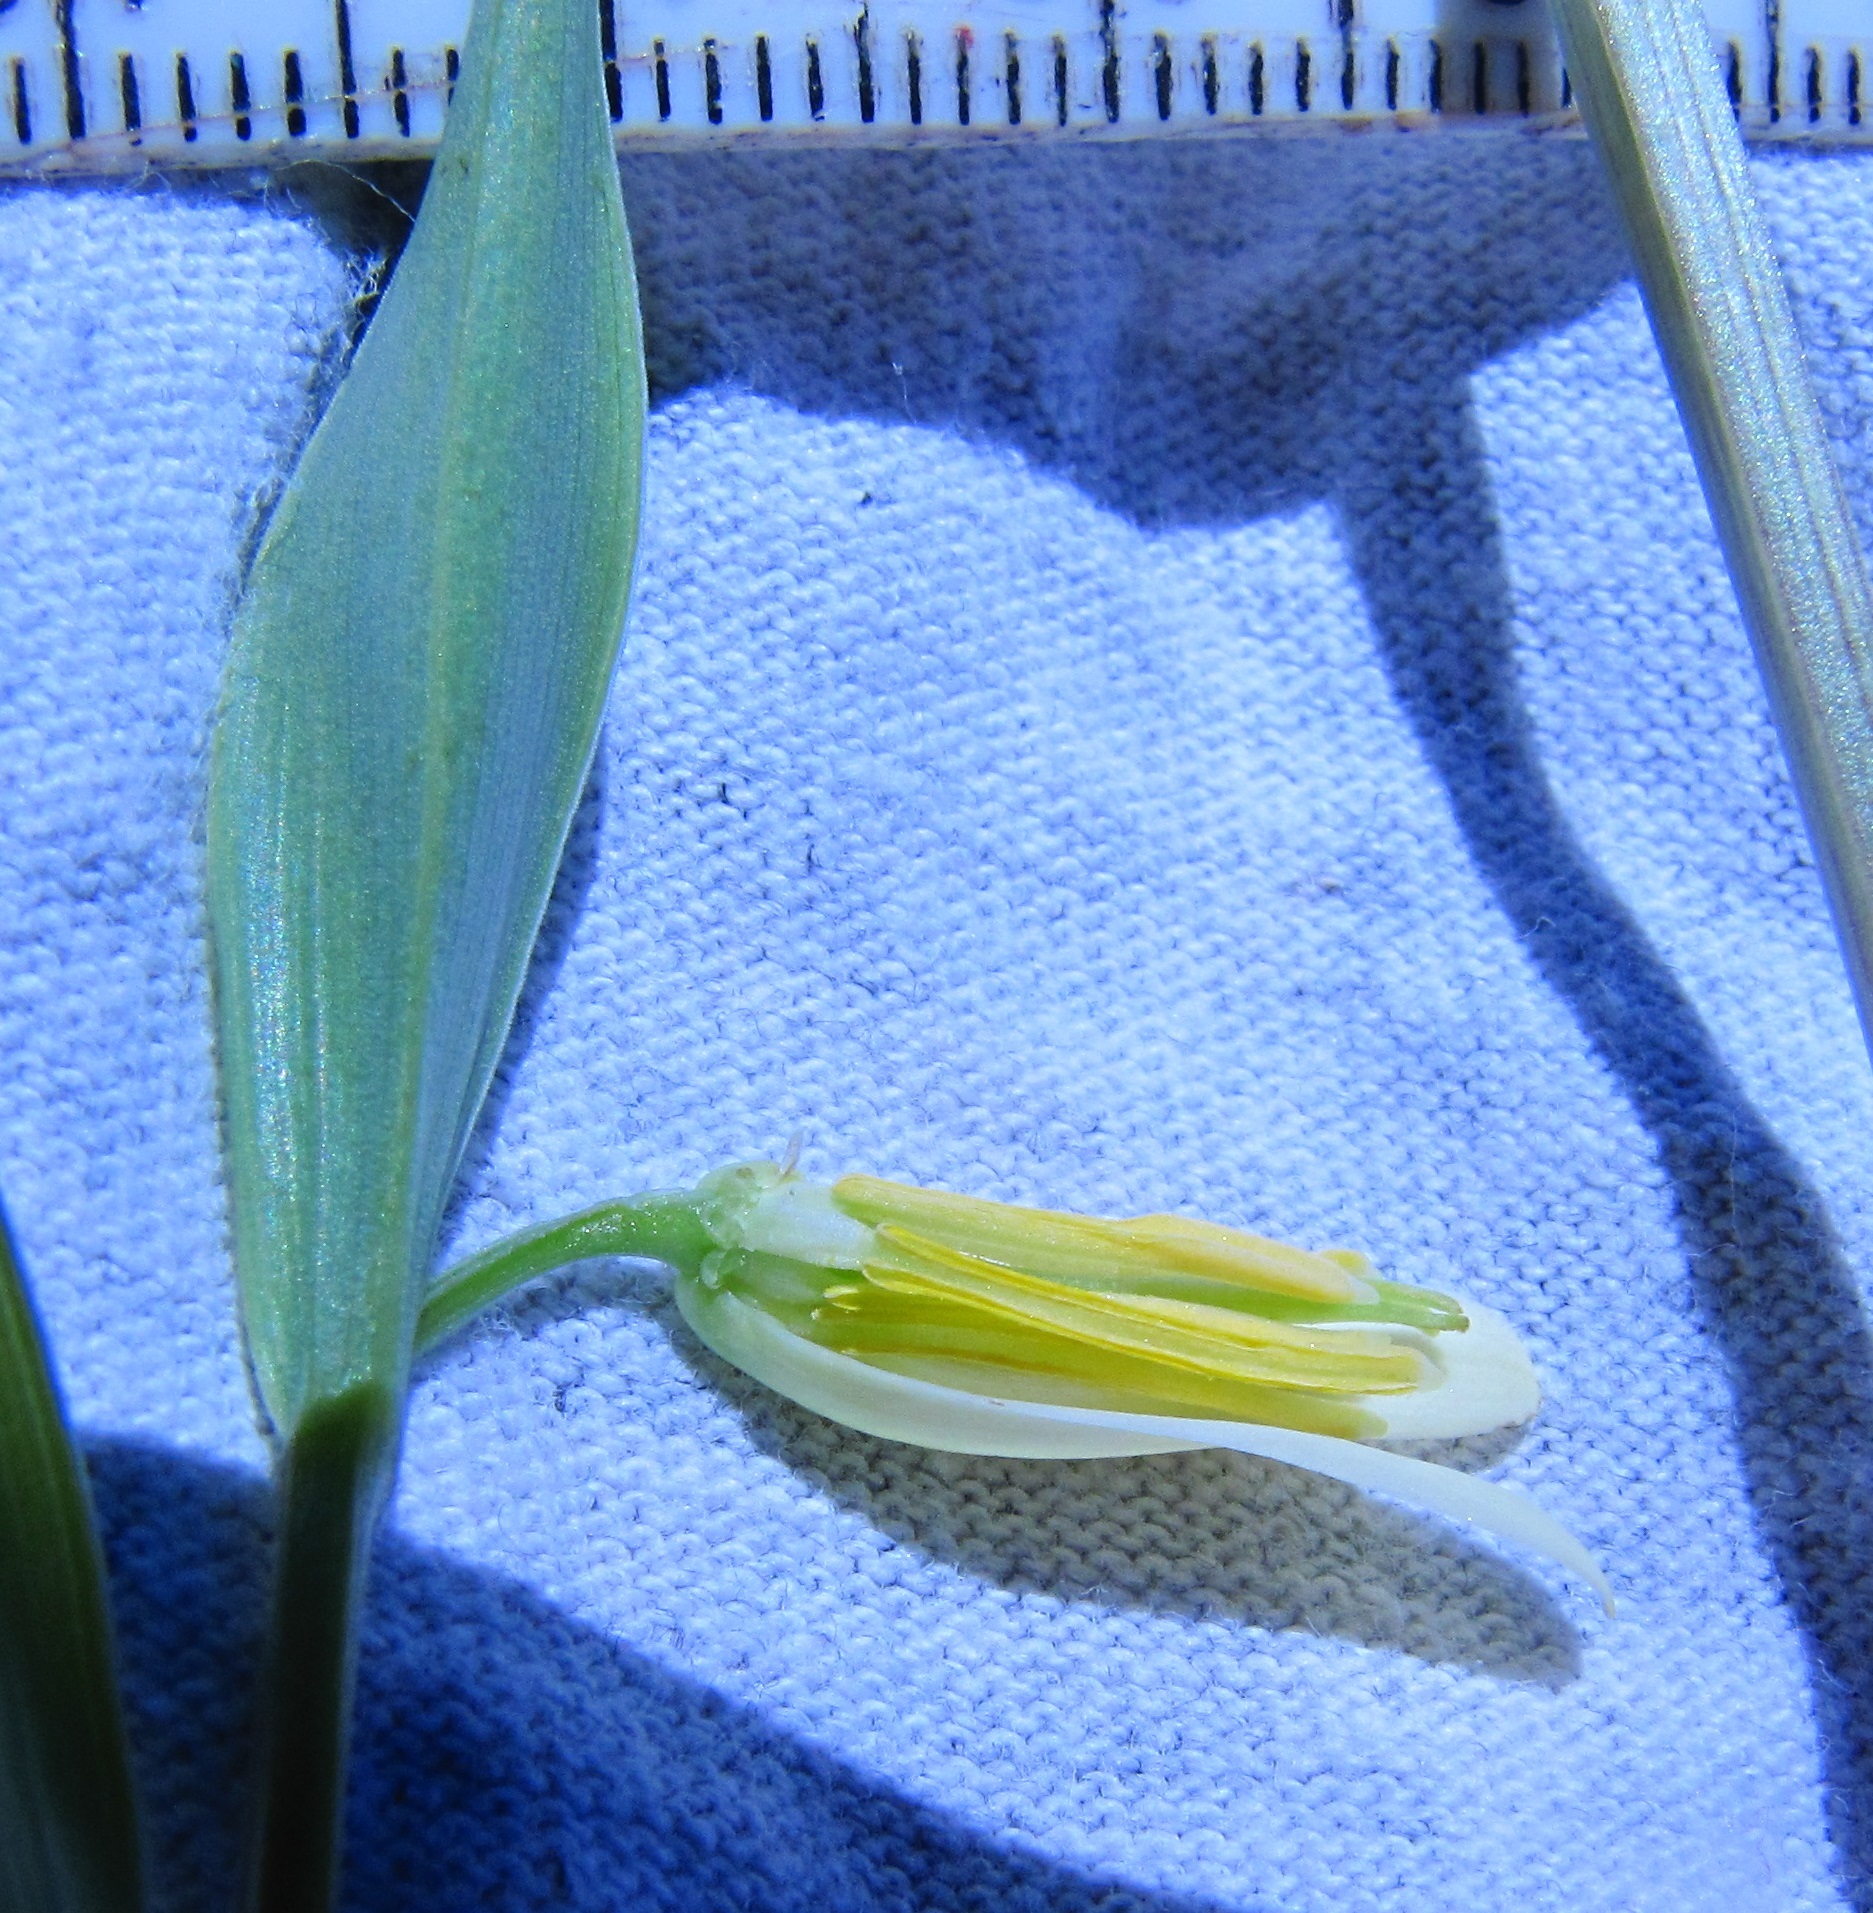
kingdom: Plantae
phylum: Tracheophyta
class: Liliopsida
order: Liliales
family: Colchicaceae
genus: Uvularia
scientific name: Uvularia puberula
